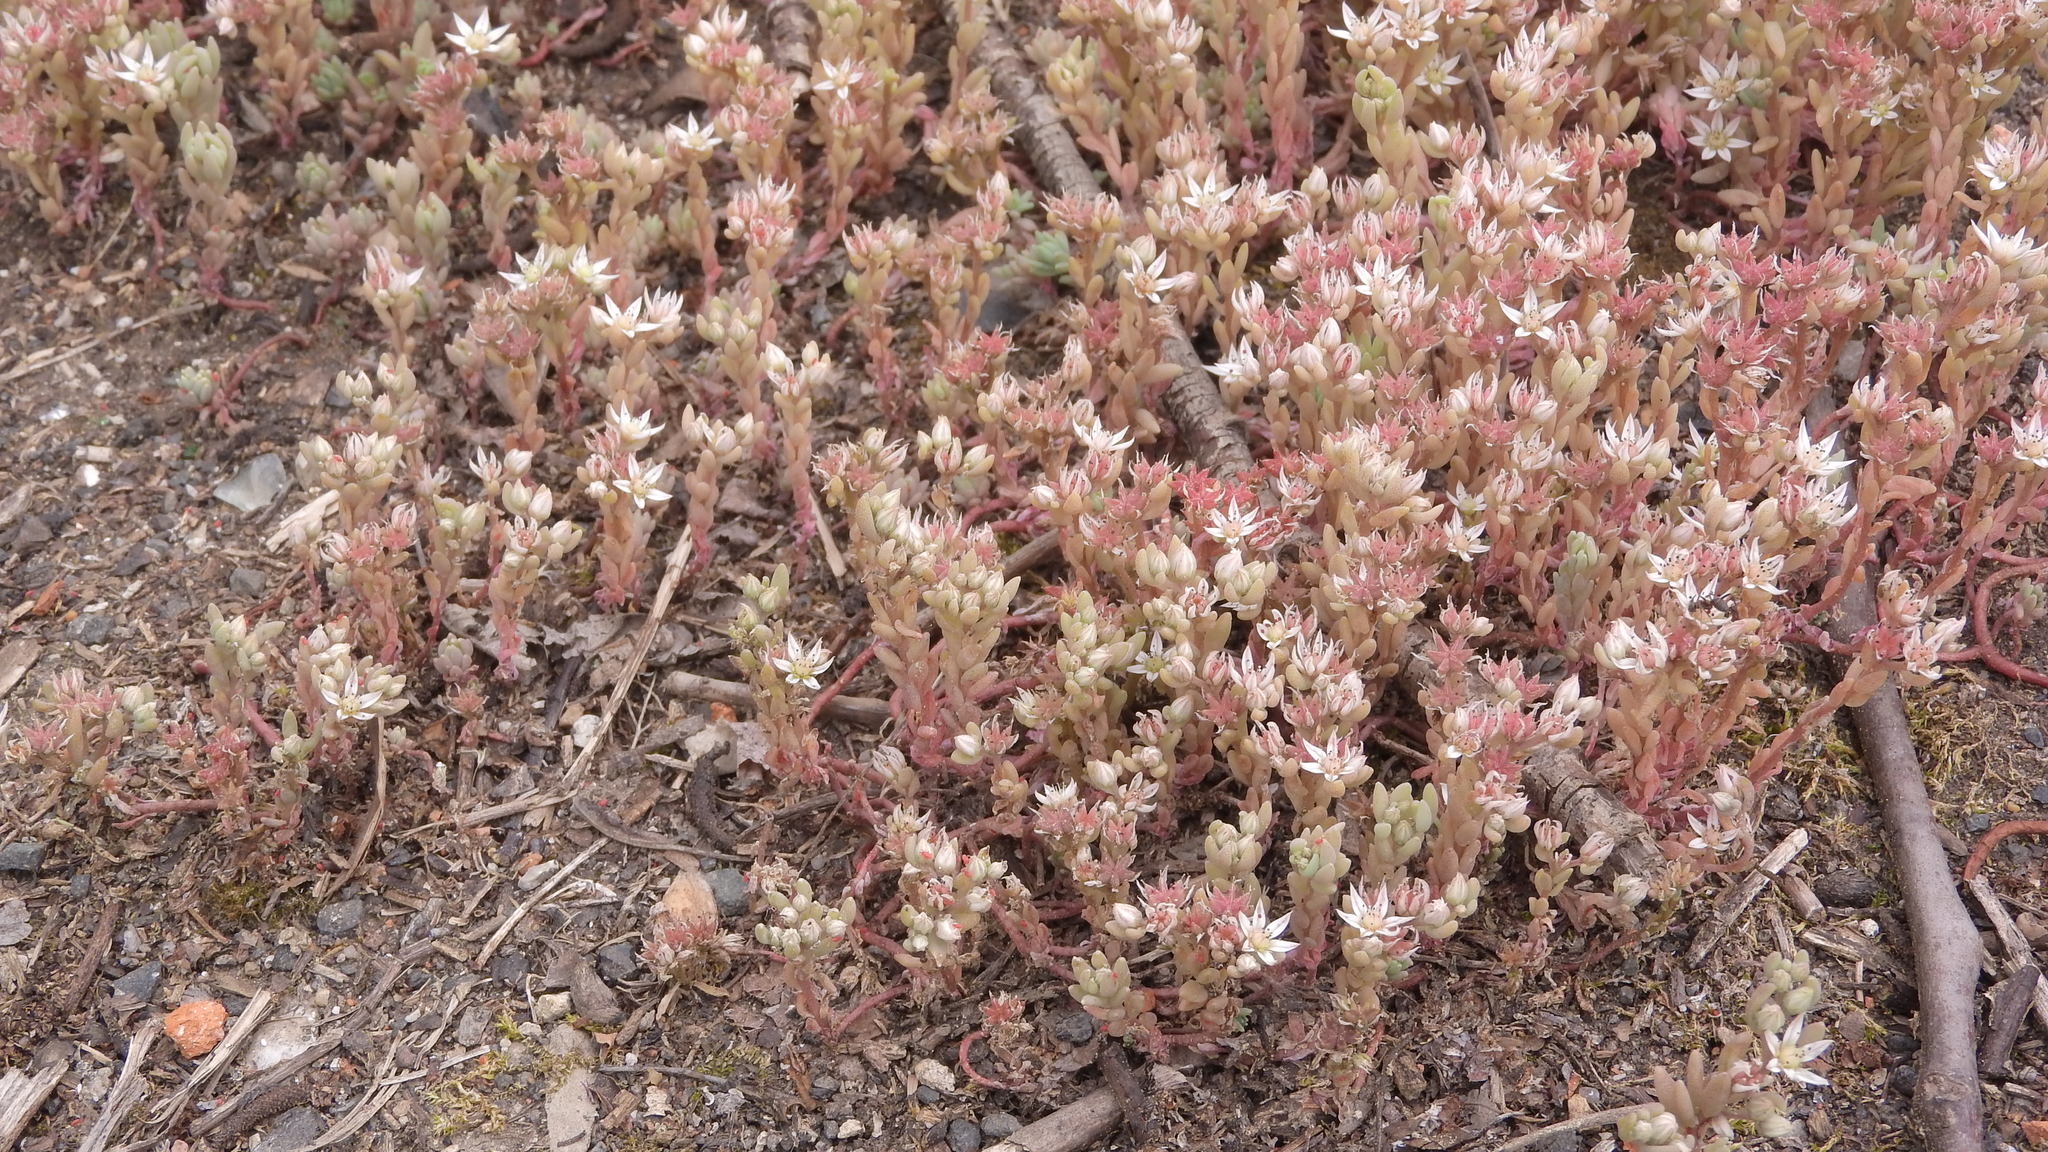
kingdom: Plantae
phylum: Tracheophyta
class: Magnoliopsida
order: Saxifragales
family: Crassulaceae
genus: Sedum
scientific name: Sedum hispanicum
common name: Spanish stonecrop
